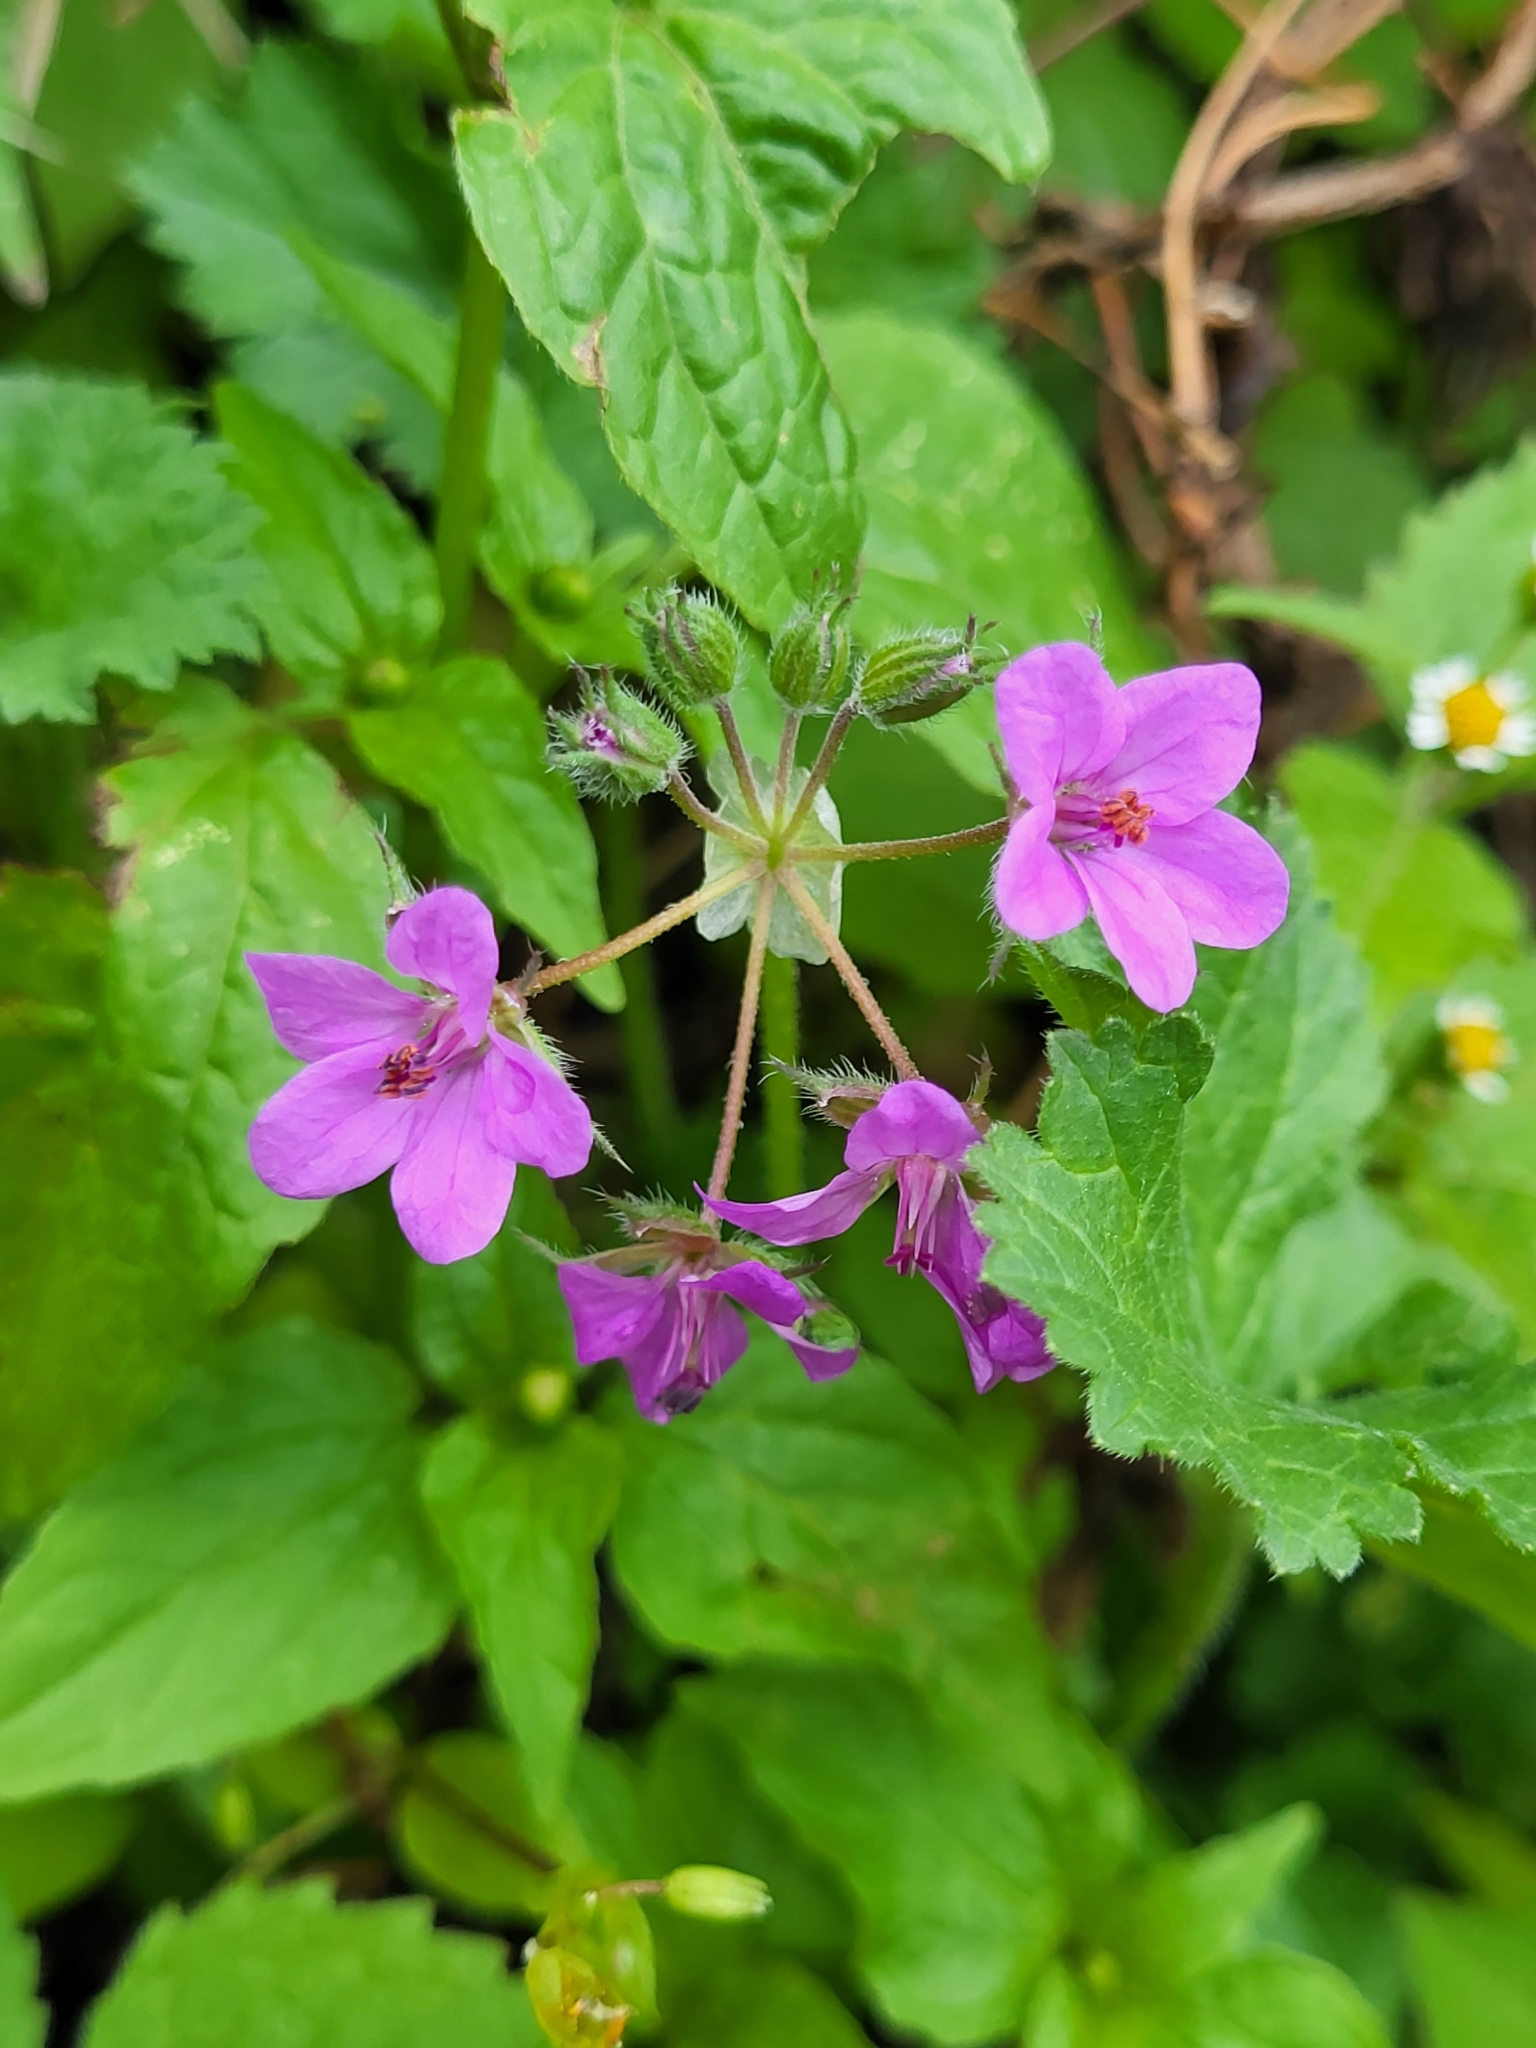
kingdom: Plantae
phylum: Tracheophyta
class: Magnoliopsida
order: Geraniales
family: Geraniaceae
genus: Erodium
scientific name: Erodium malacoides
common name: Soft stork's-bill
